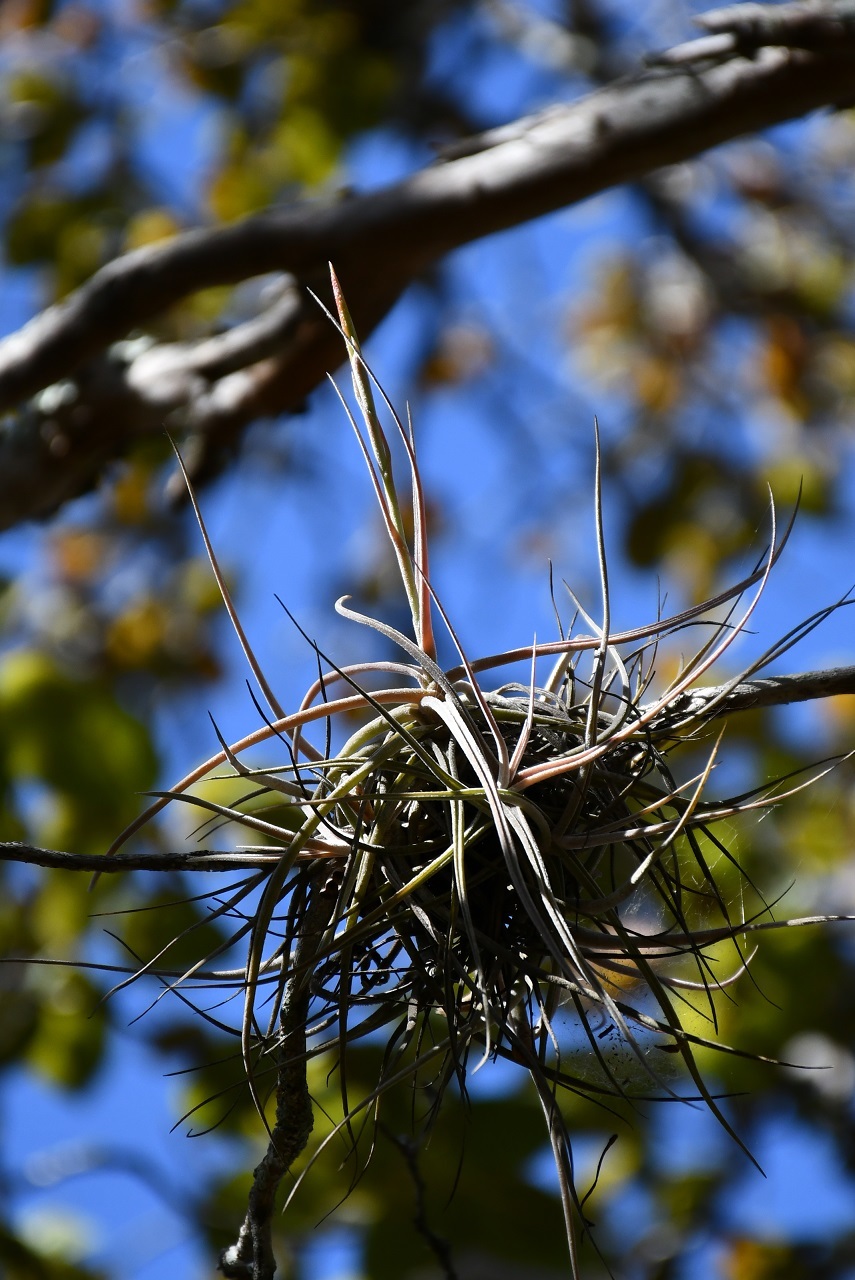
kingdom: Plantae
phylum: Tracheophyta
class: Liliopsida
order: Poales
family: Bromeliaceae
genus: Tillandsia
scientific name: Tillandsia schiedeana
